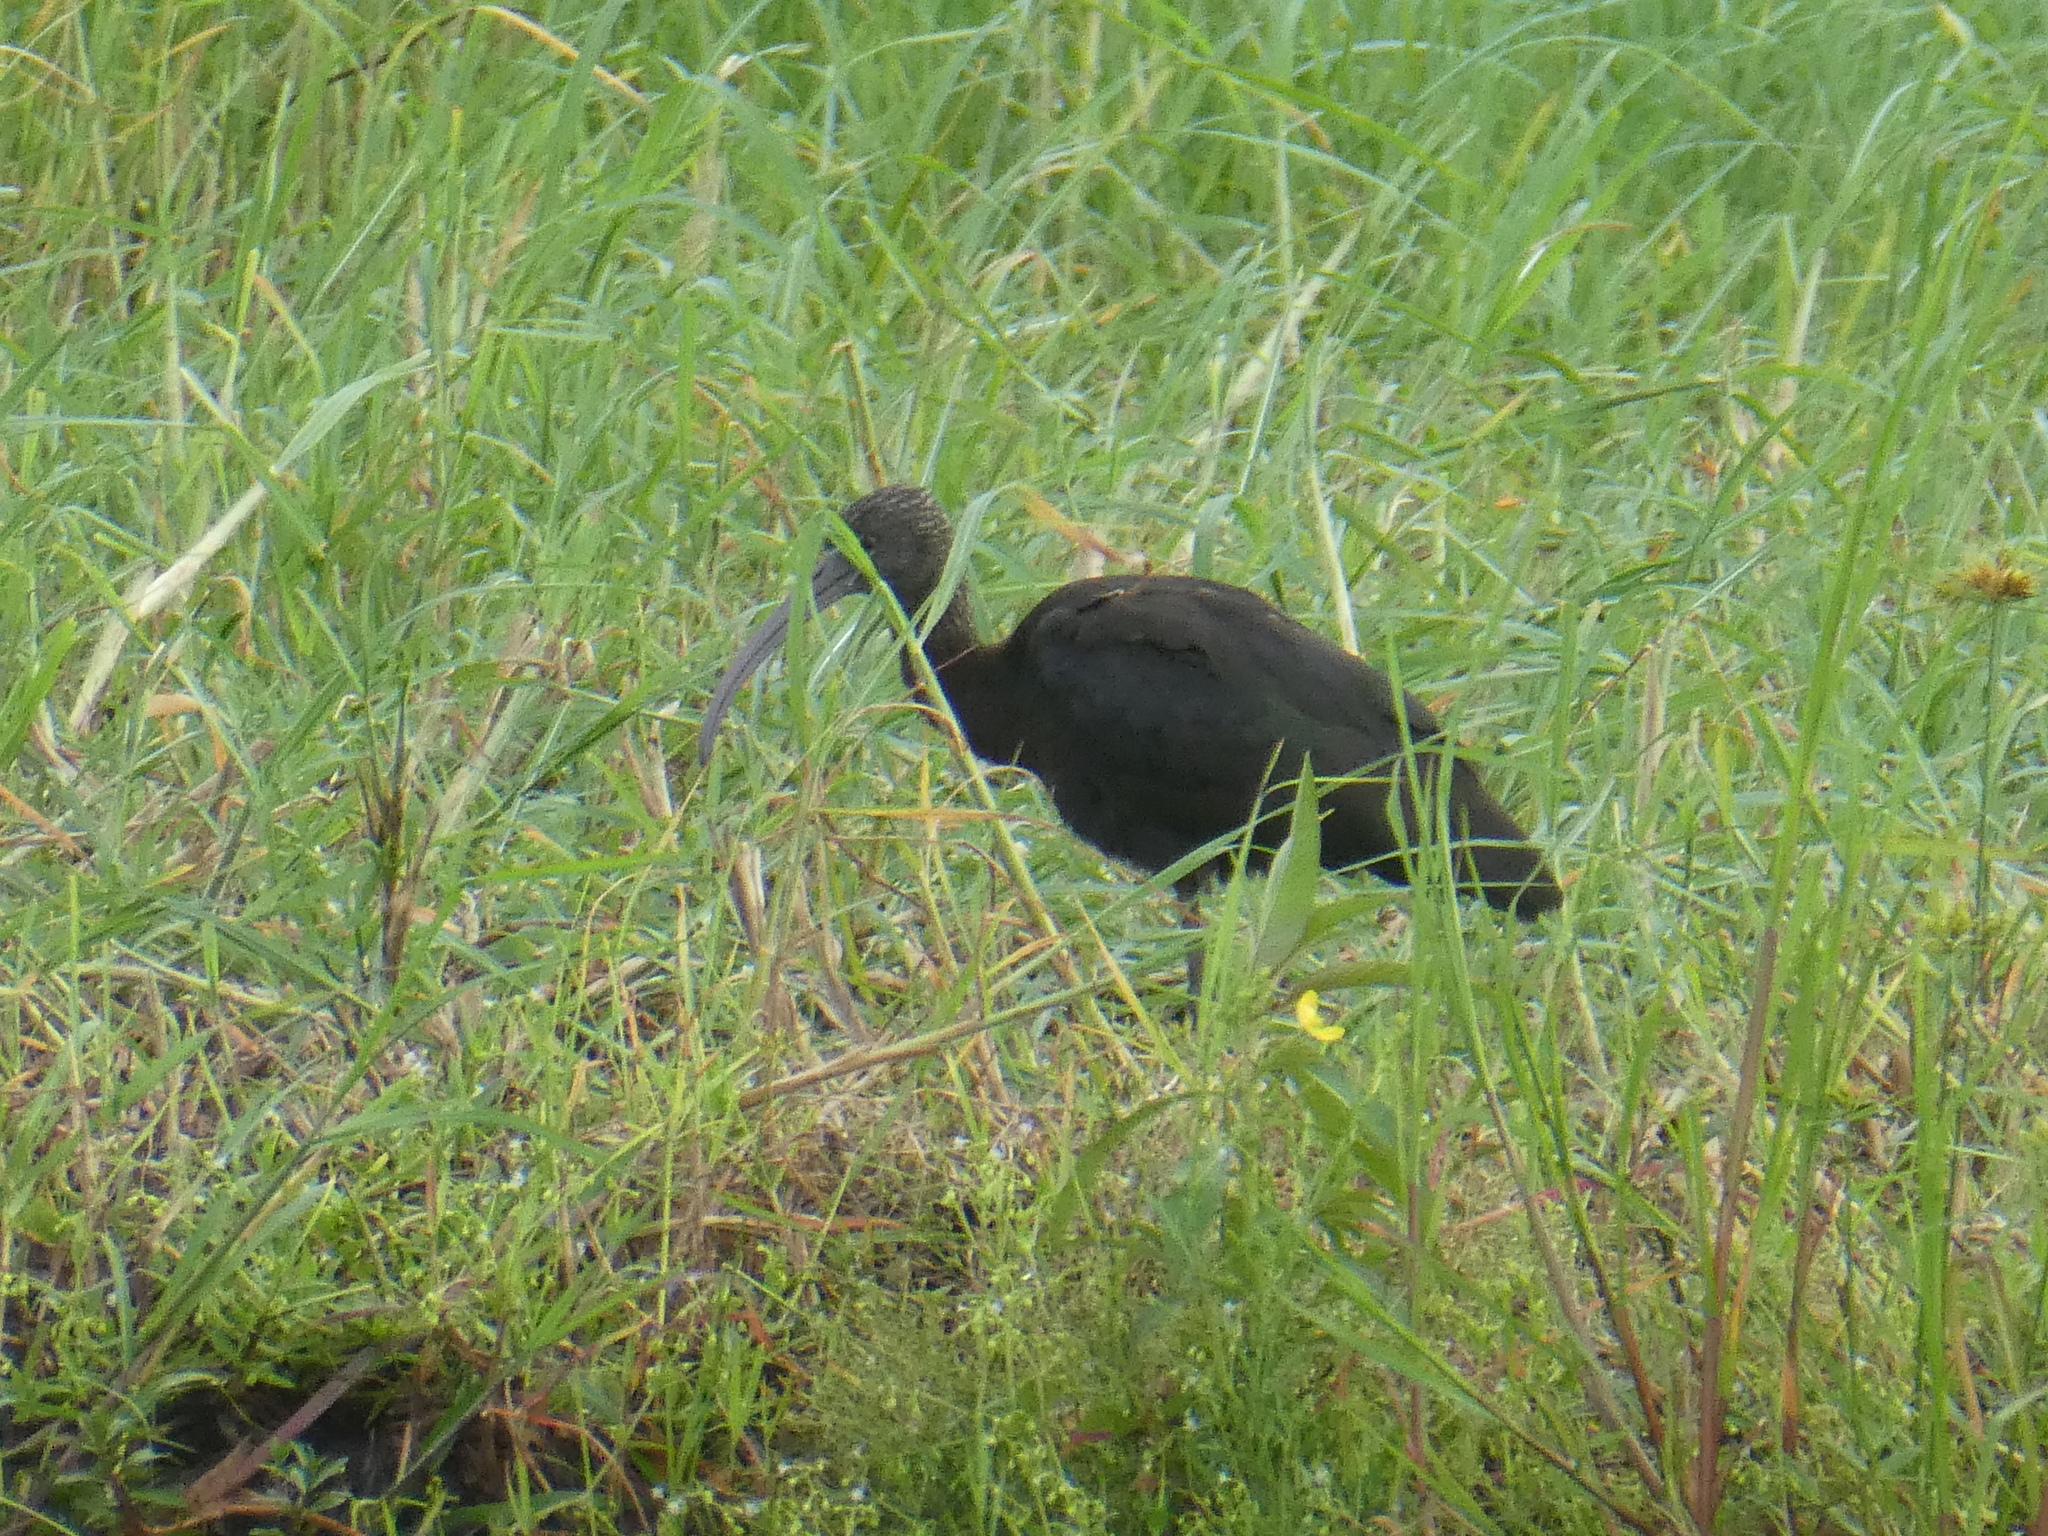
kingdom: Animalia
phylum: Chordata
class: Aves
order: Pelecaniformes
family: Threskiornithidae
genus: Plegadis
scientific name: Plegadis falcinellus
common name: Glossy ibis
